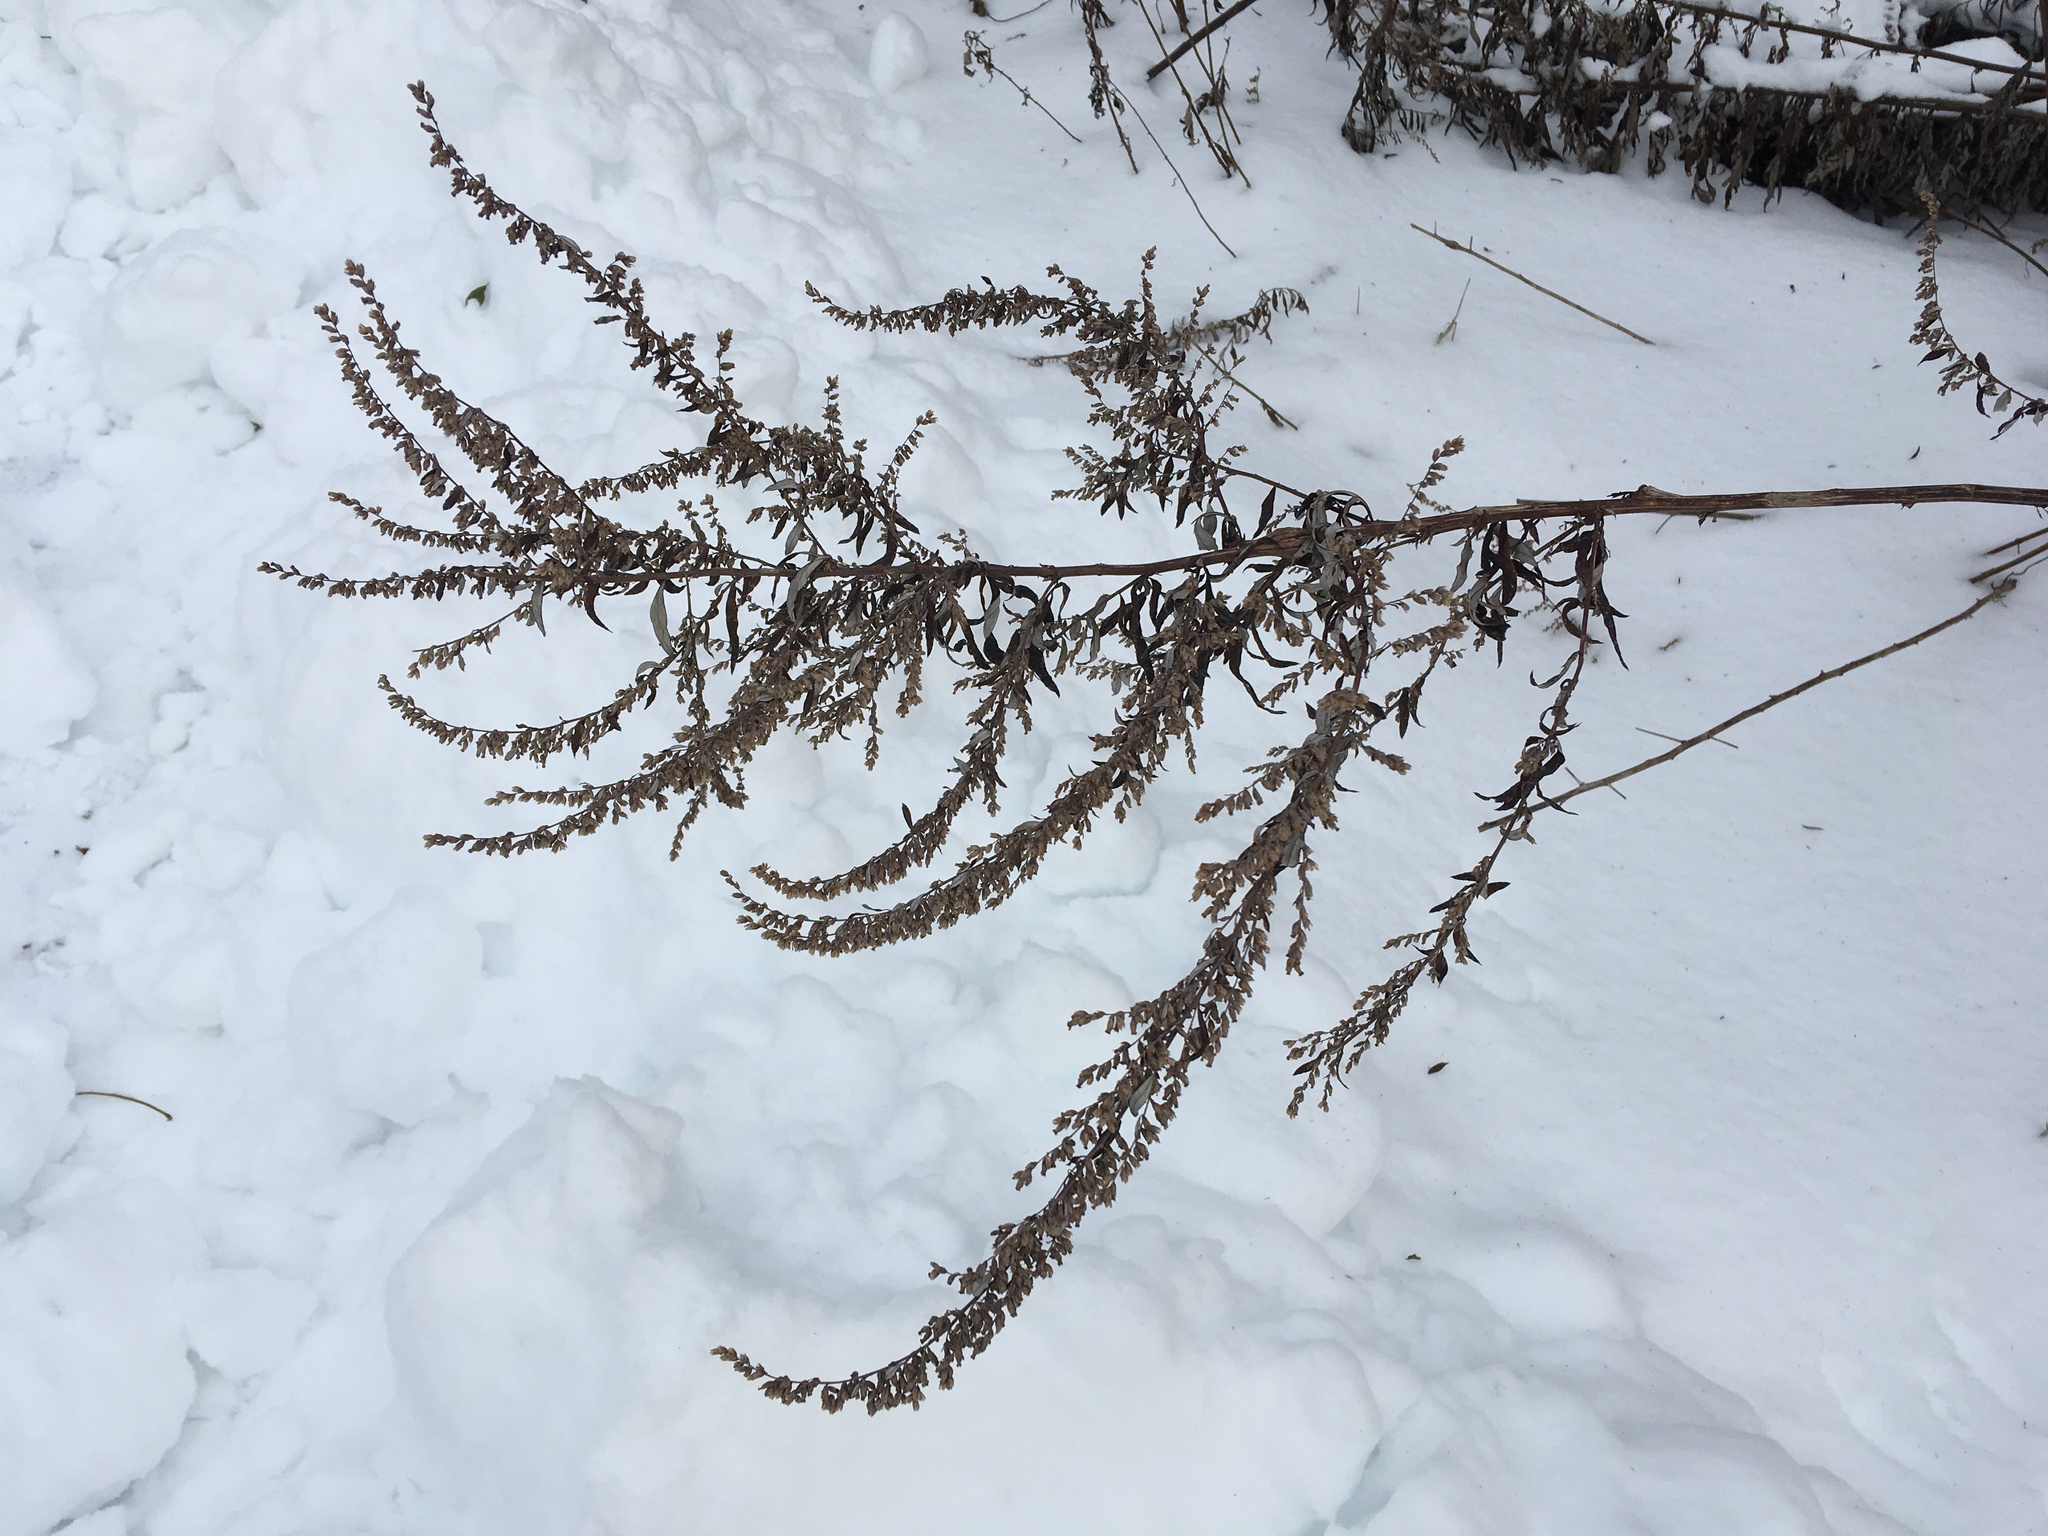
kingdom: Plantae
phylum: Tracheophyta
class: Magnoliopsida
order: Asterales
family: Asteraceae
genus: Artemisia
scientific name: Artemisia vulgaris
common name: Mugwort
